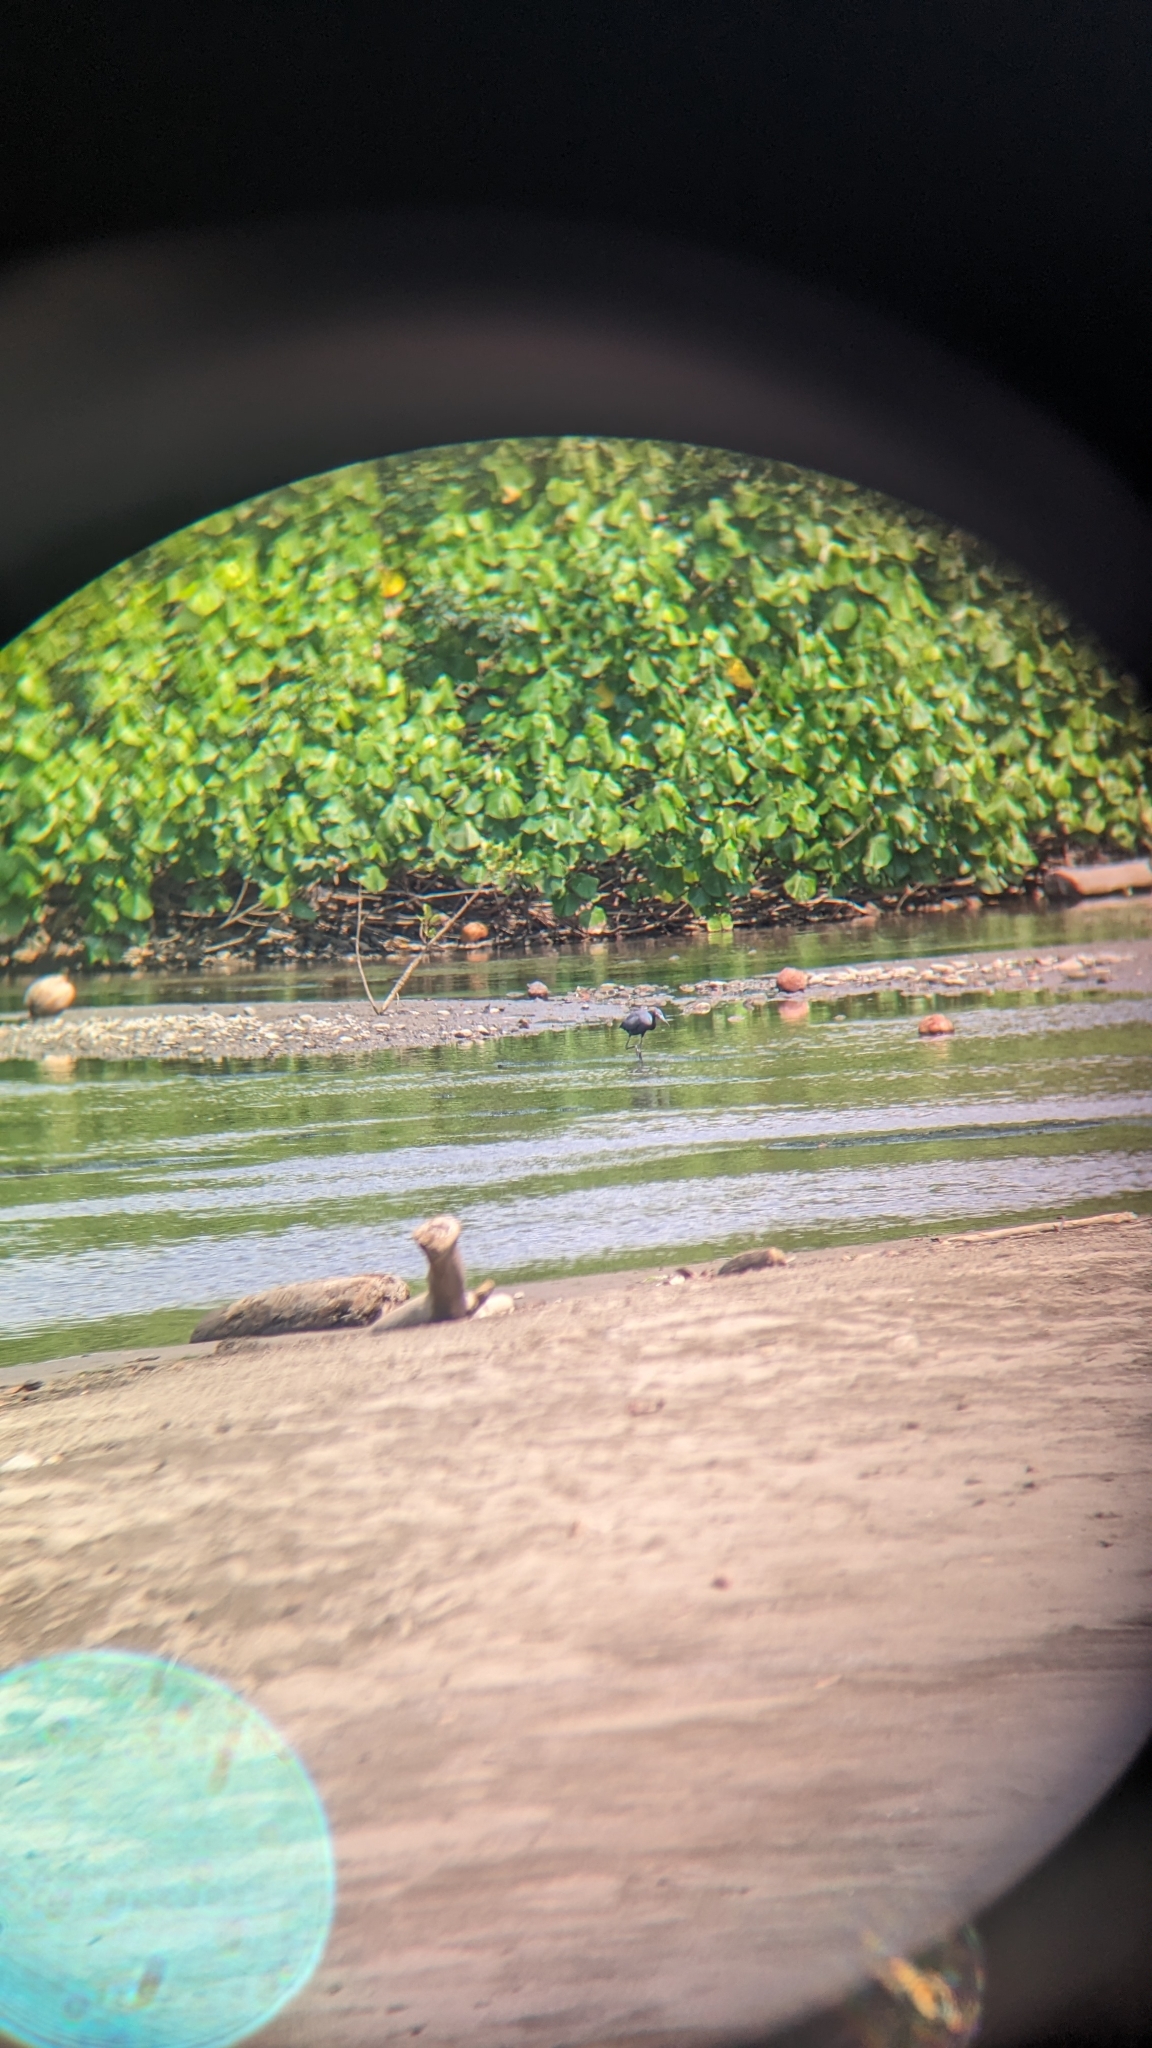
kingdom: Animalia
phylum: Chordata
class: Aves
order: Pelecaniformes
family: Ardeidae
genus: Egretta
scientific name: Egretta caerulea
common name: Little blue heron
